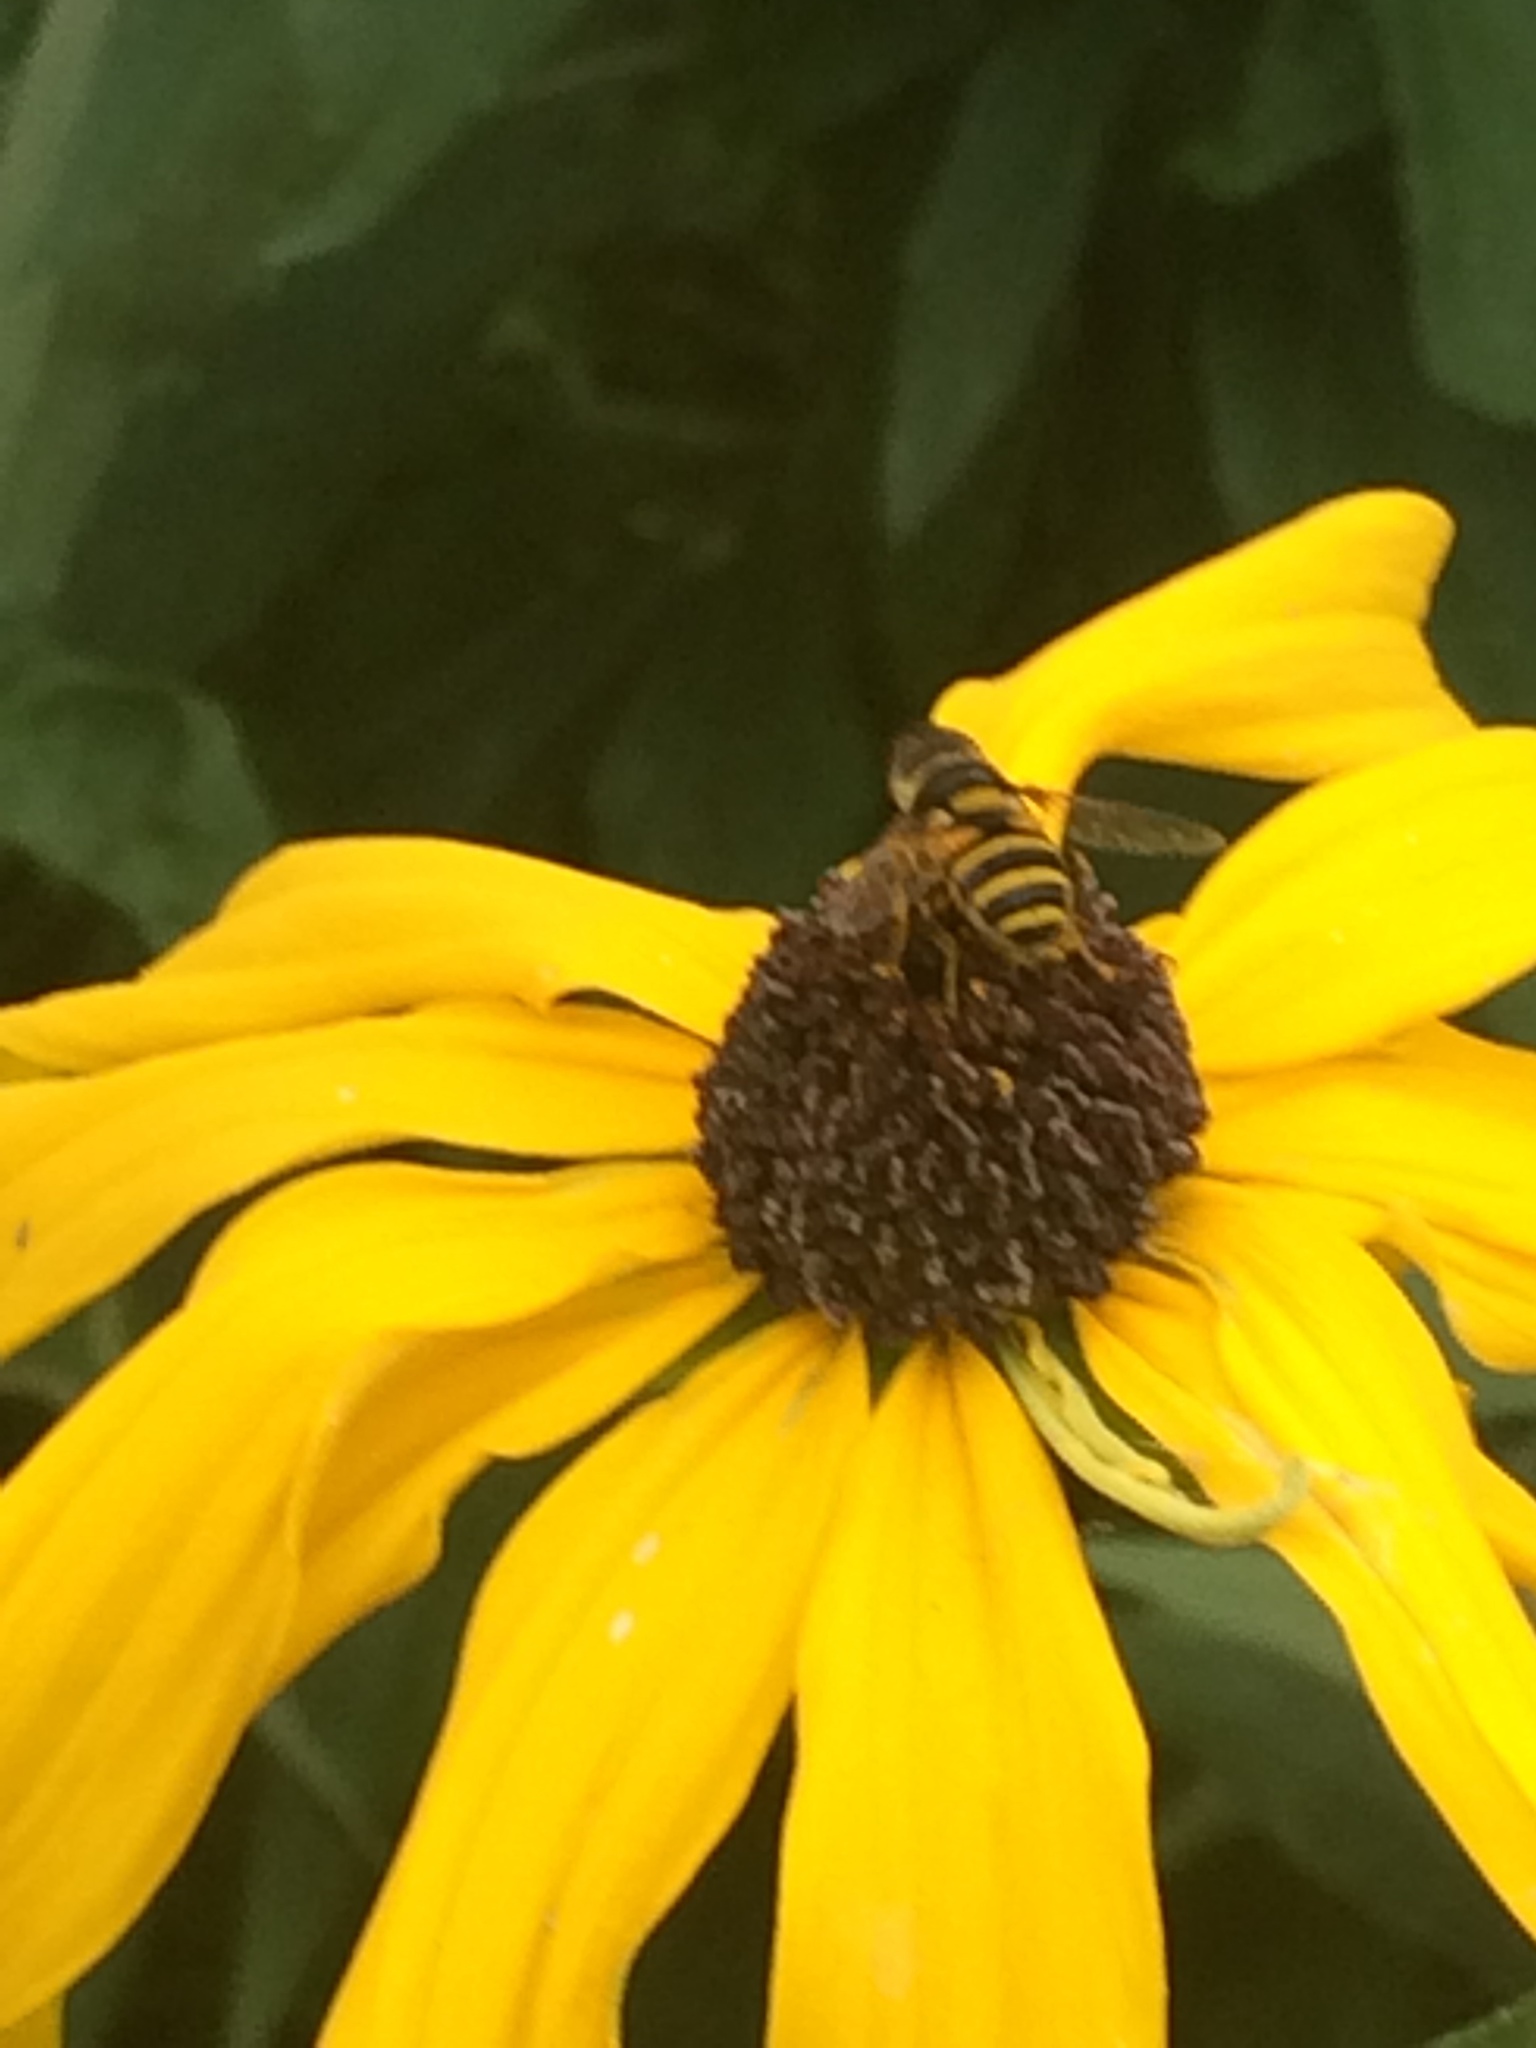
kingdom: Animalia
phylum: Arthropoda
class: Insecta
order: Diptera
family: Syrphidae
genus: Eristalis
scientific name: Eristalis transversa
